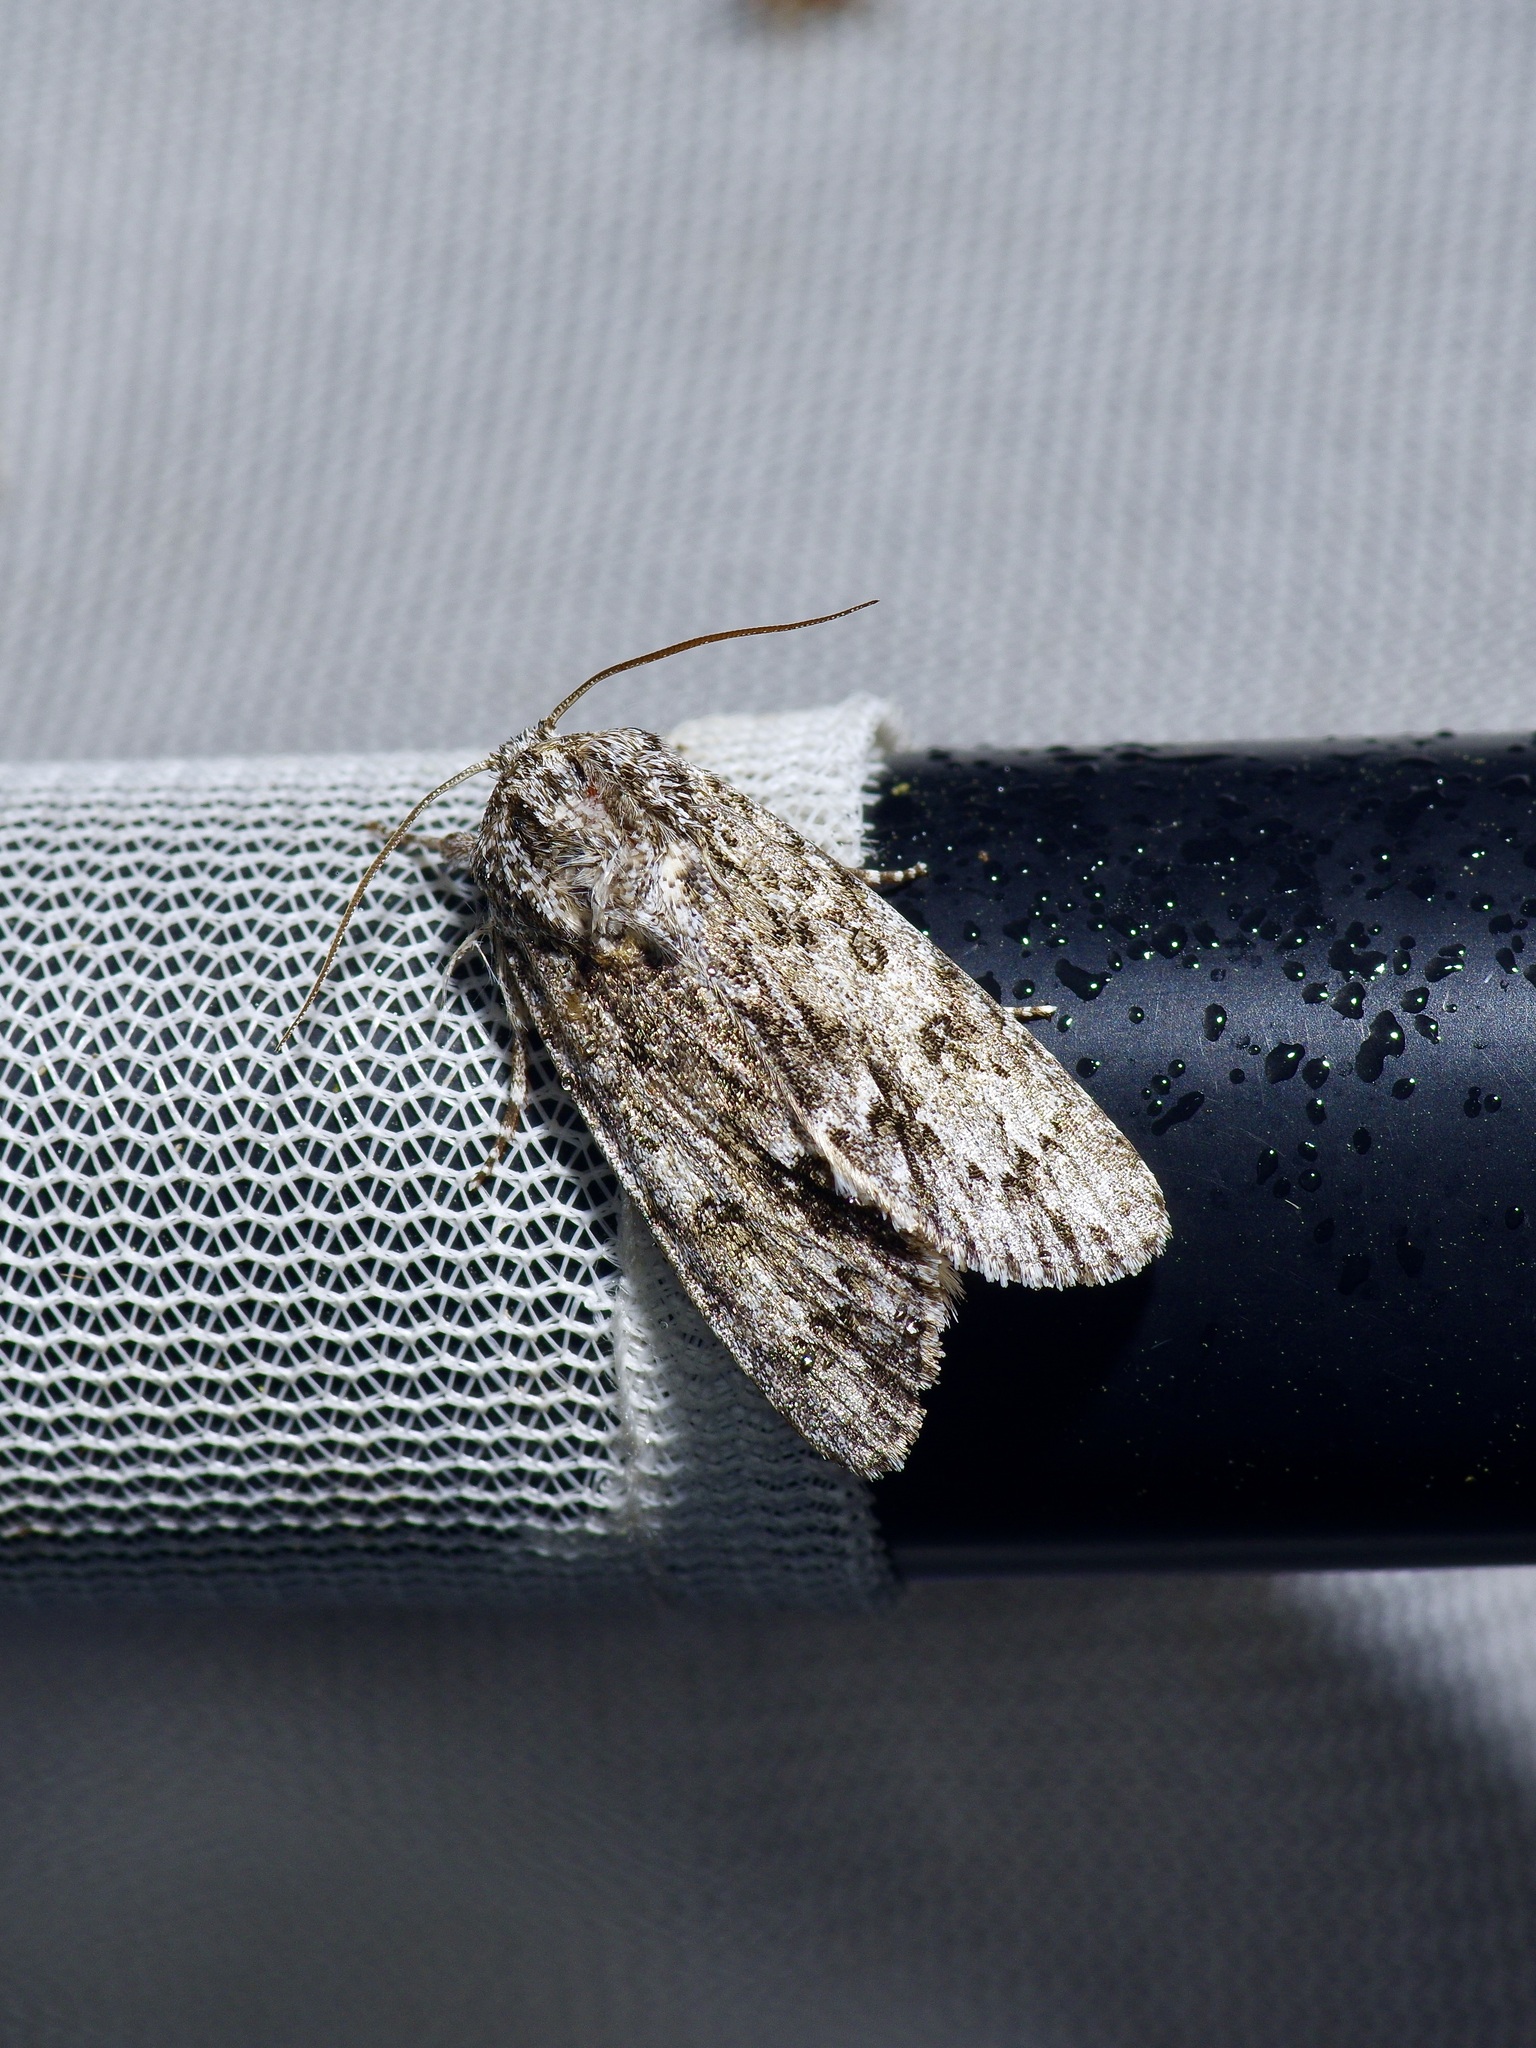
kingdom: Animalia
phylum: Arthropoda
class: Insecta
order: Lepidoptera
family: Noctuidae
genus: Acronicta
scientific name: Acronicta rubricoma
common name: Hackberry dagger
